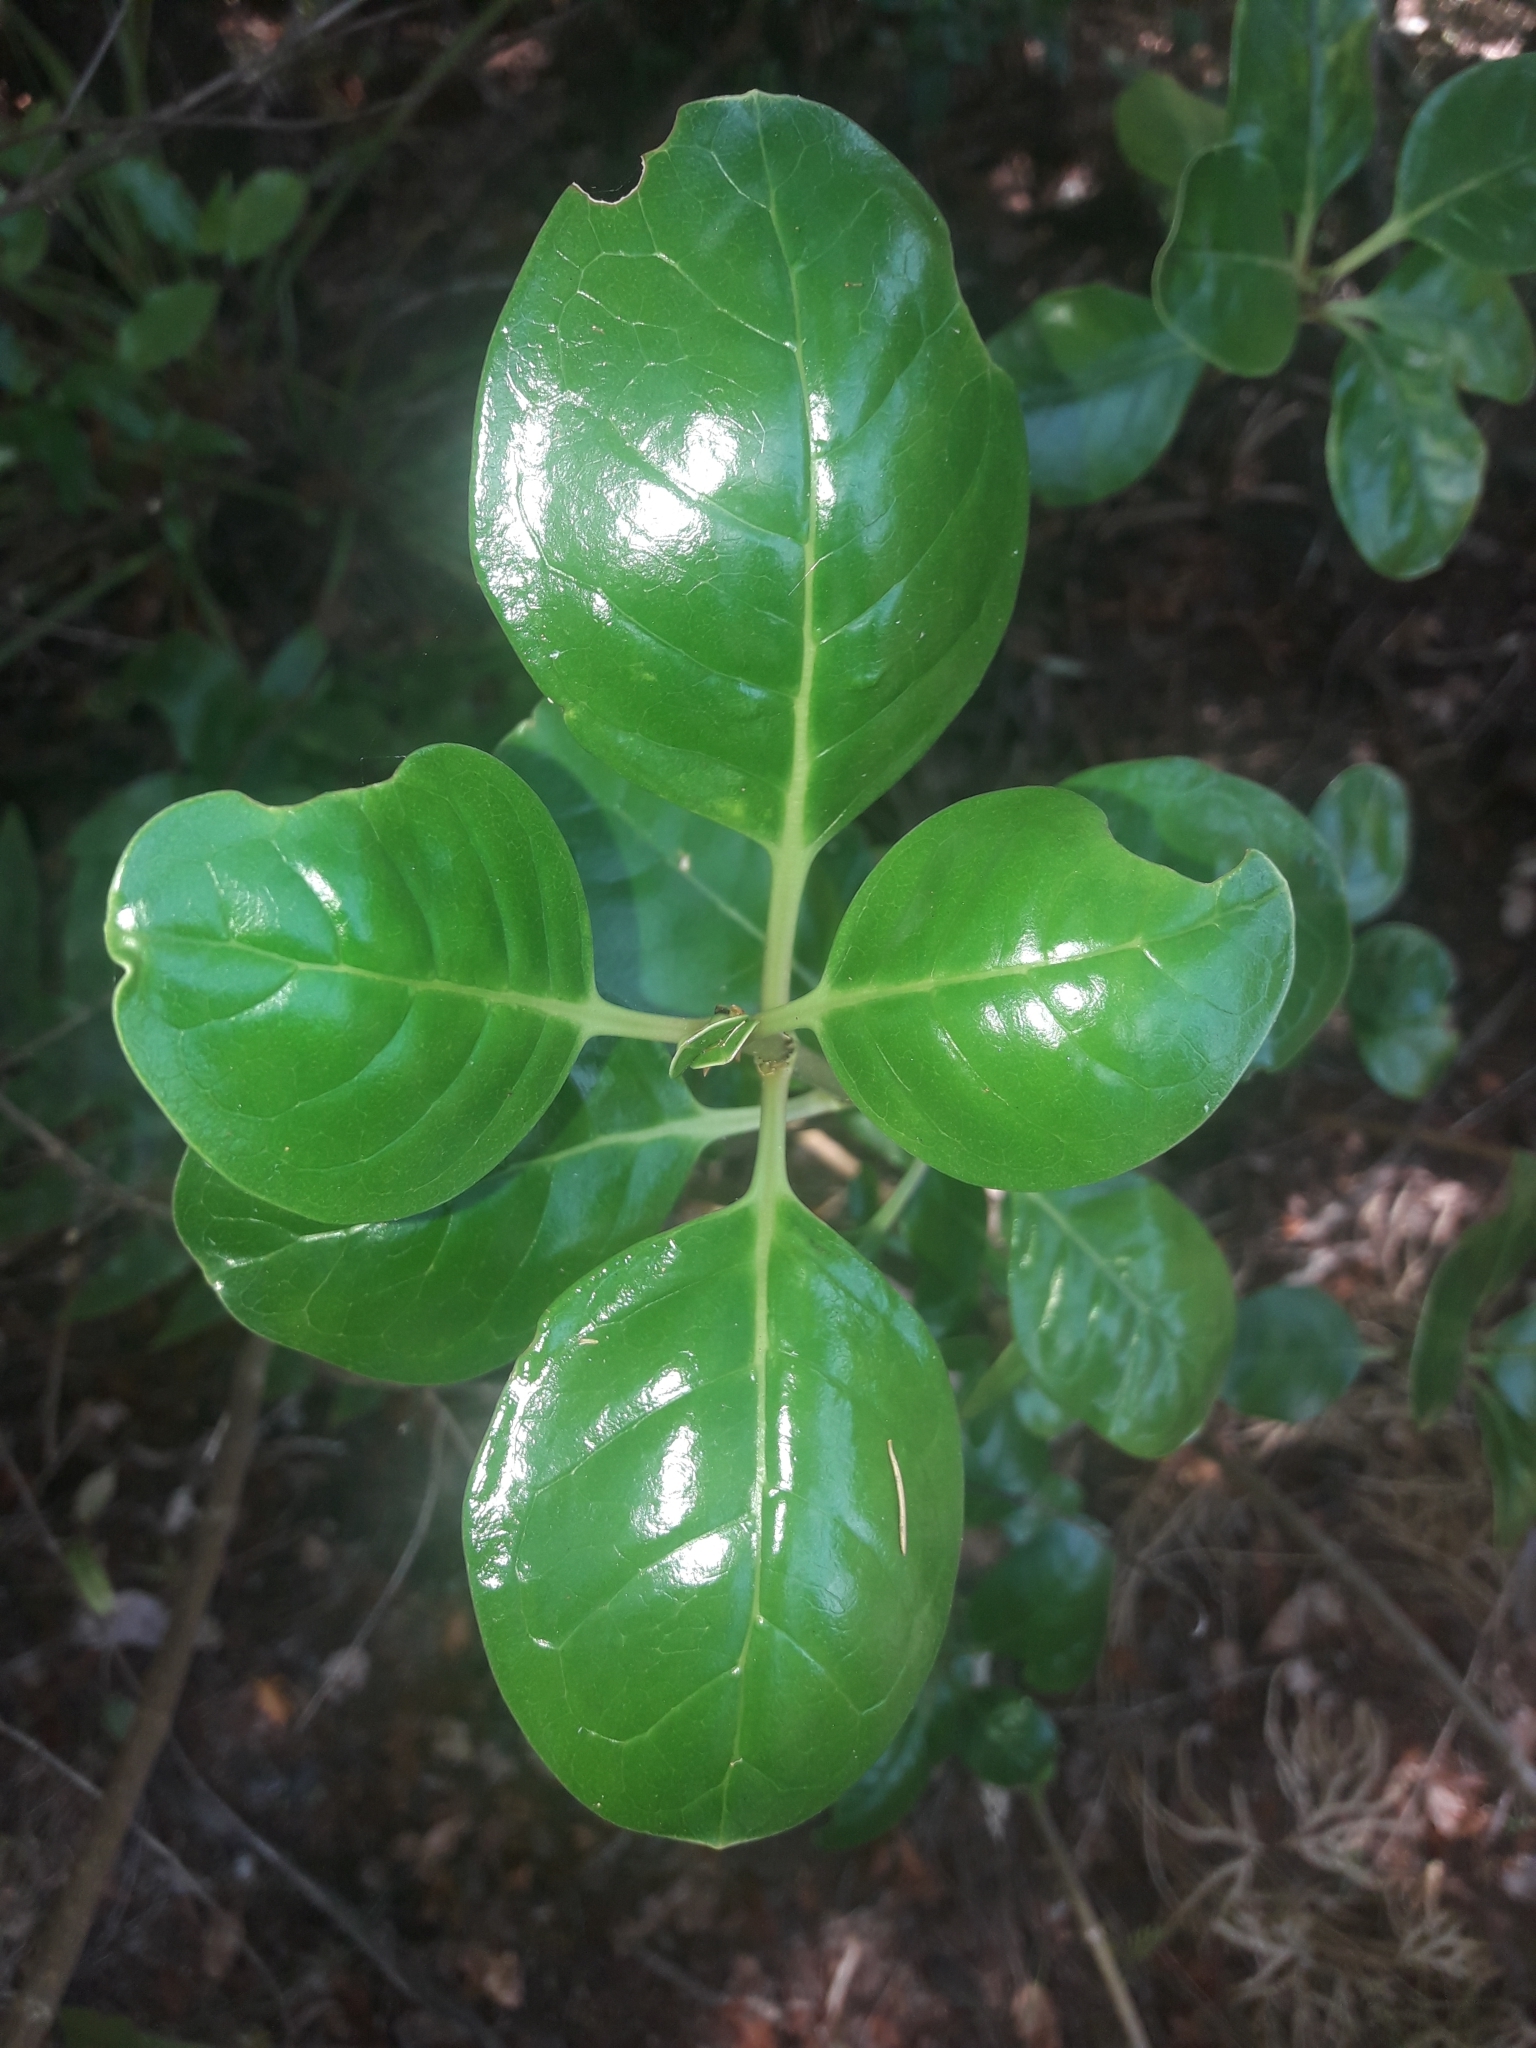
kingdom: Plantae
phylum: Tracheophyta
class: Magnoliopsida
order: Gentianales
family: Rubiaceae
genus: Coprosma
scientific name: Coprosma repens
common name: Tree bedstraw
